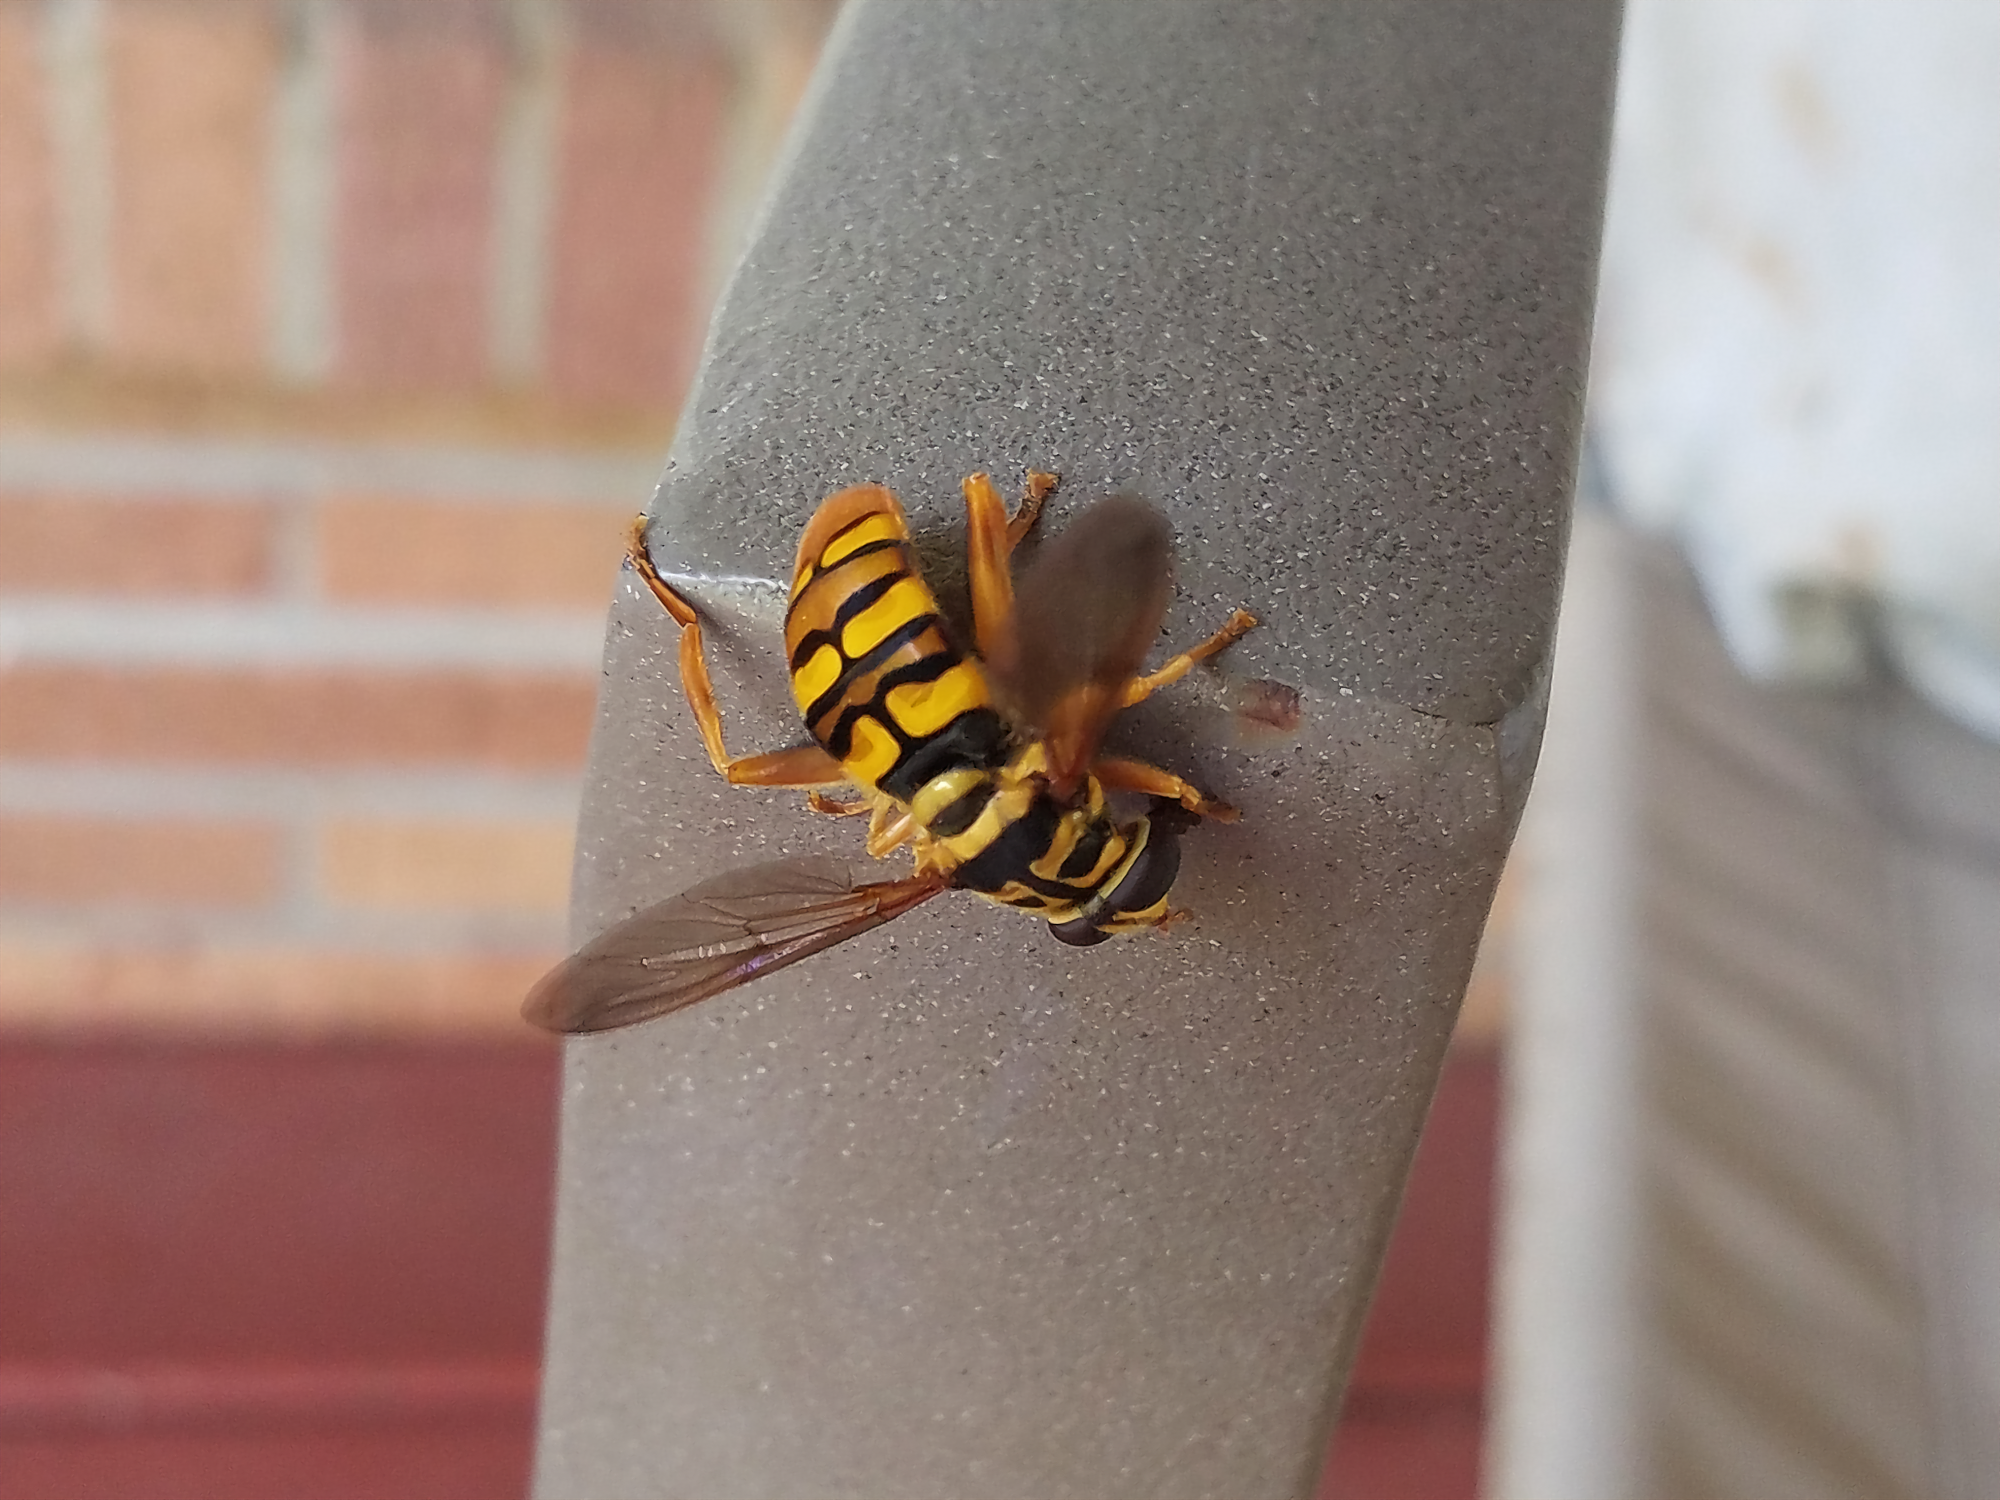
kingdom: Animalia
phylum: Arthropoda
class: Insecta
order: Diptera
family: Syrphidae
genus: Milesia
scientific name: Milesia virginiensis
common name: Virginia giant
